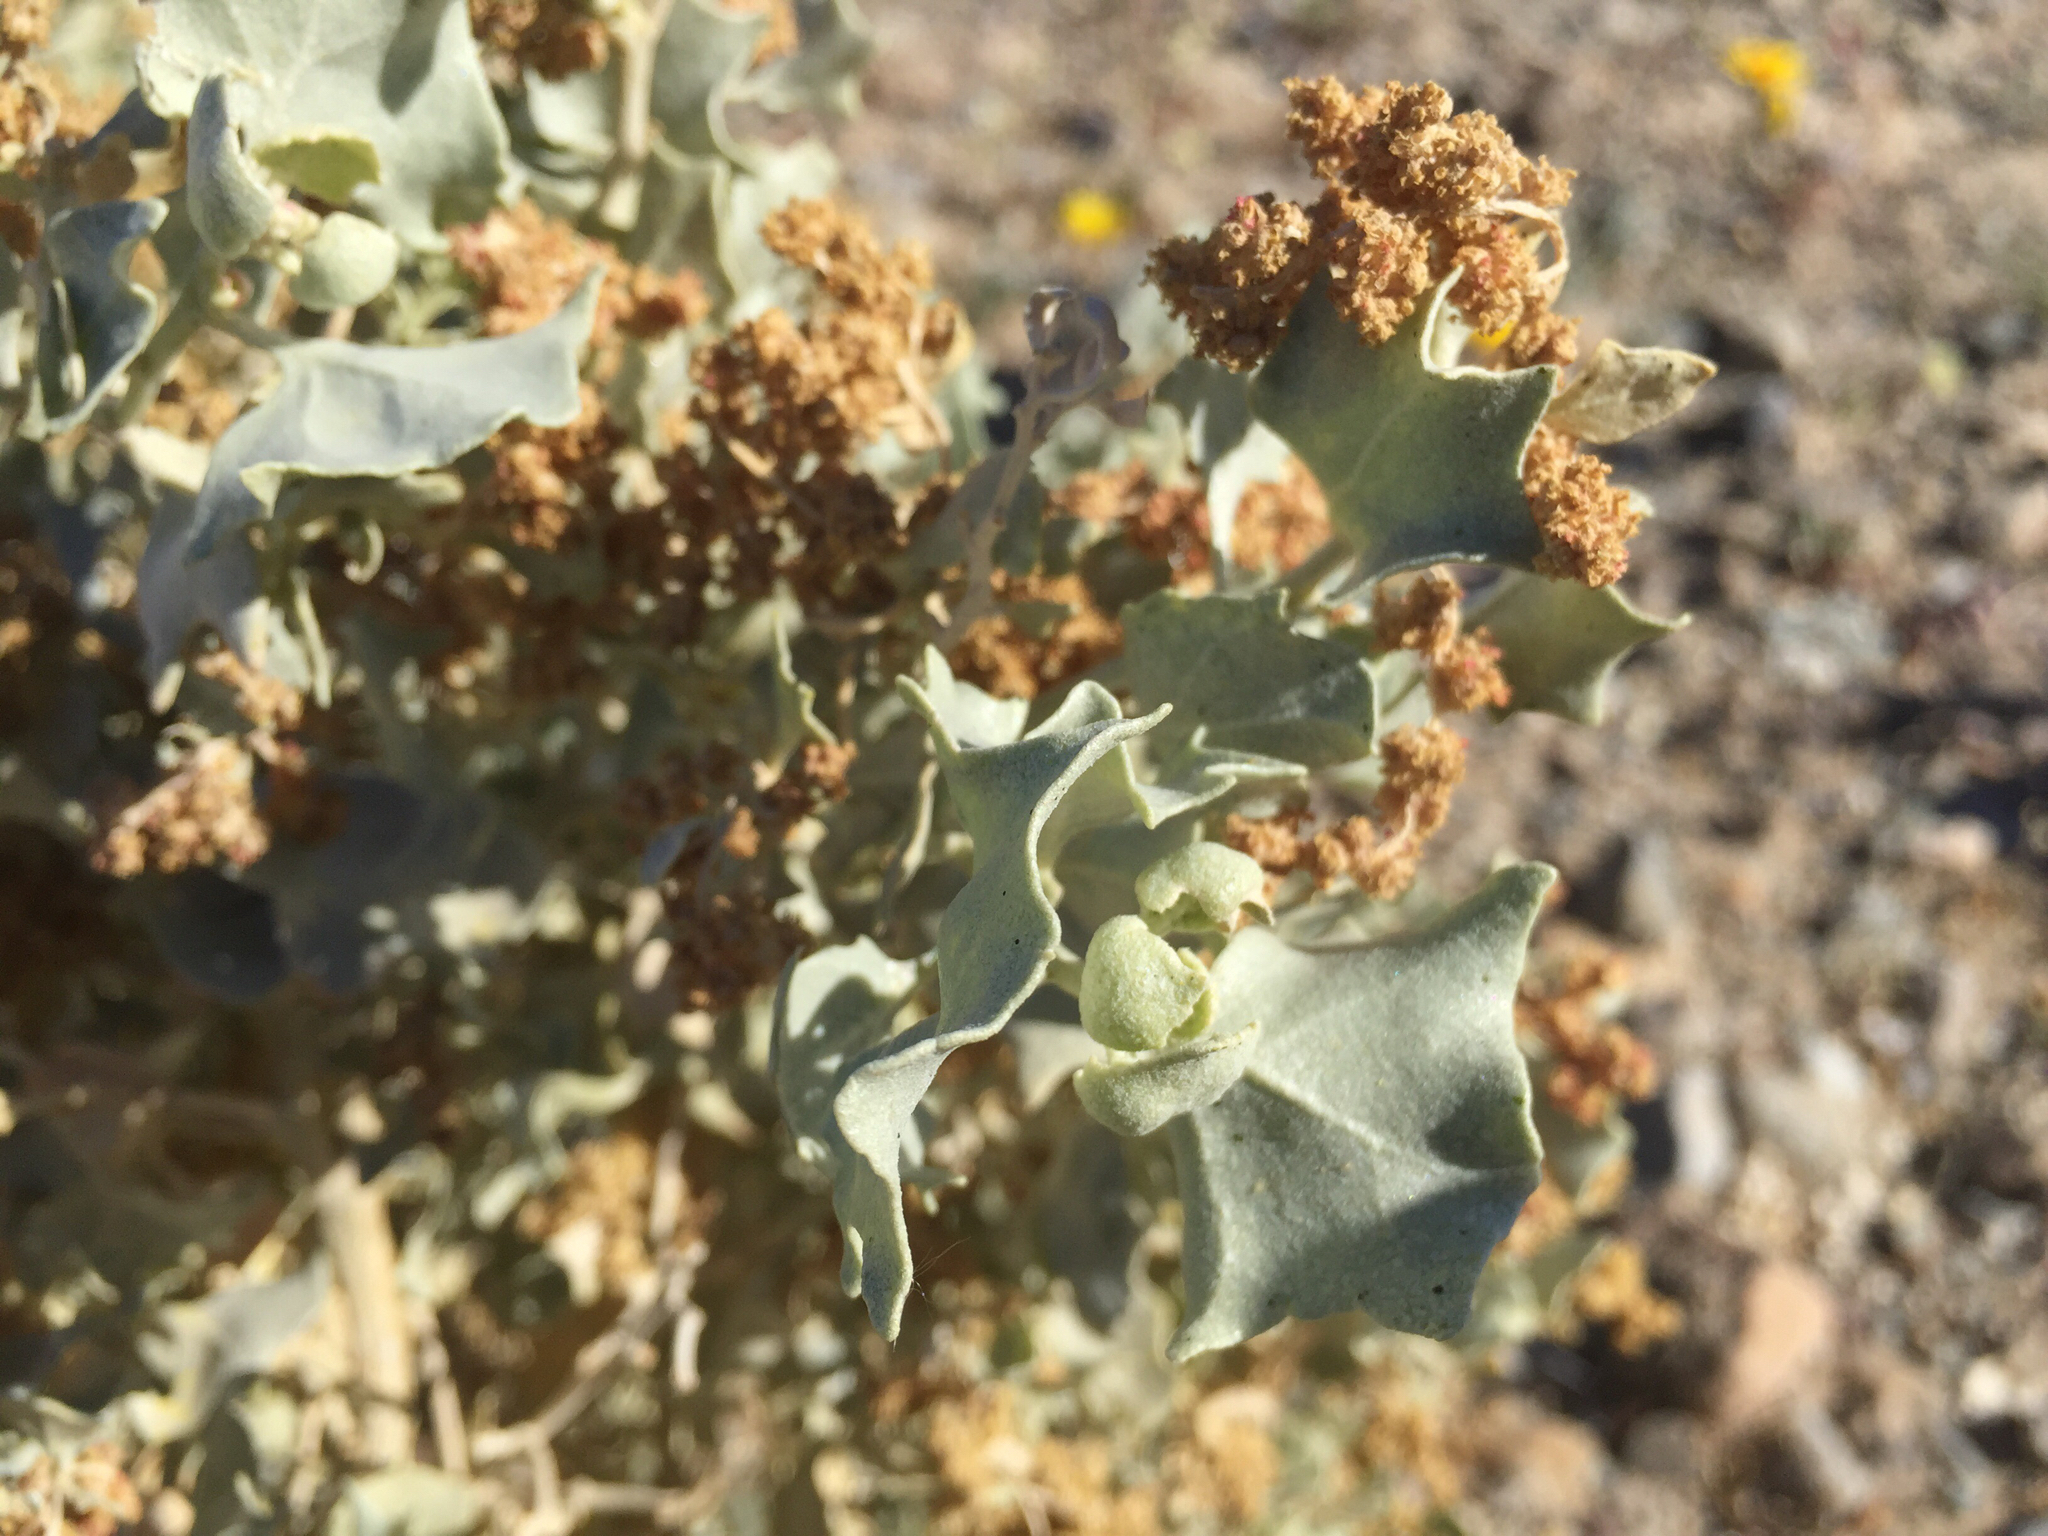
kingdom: Plantae
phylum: Tracheophyta
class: Magnoliopsida
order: Caryophyllales
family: Amaranthaceae
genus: Atriplex
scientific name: Atriplex hymenelytra
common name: Desert-holly
